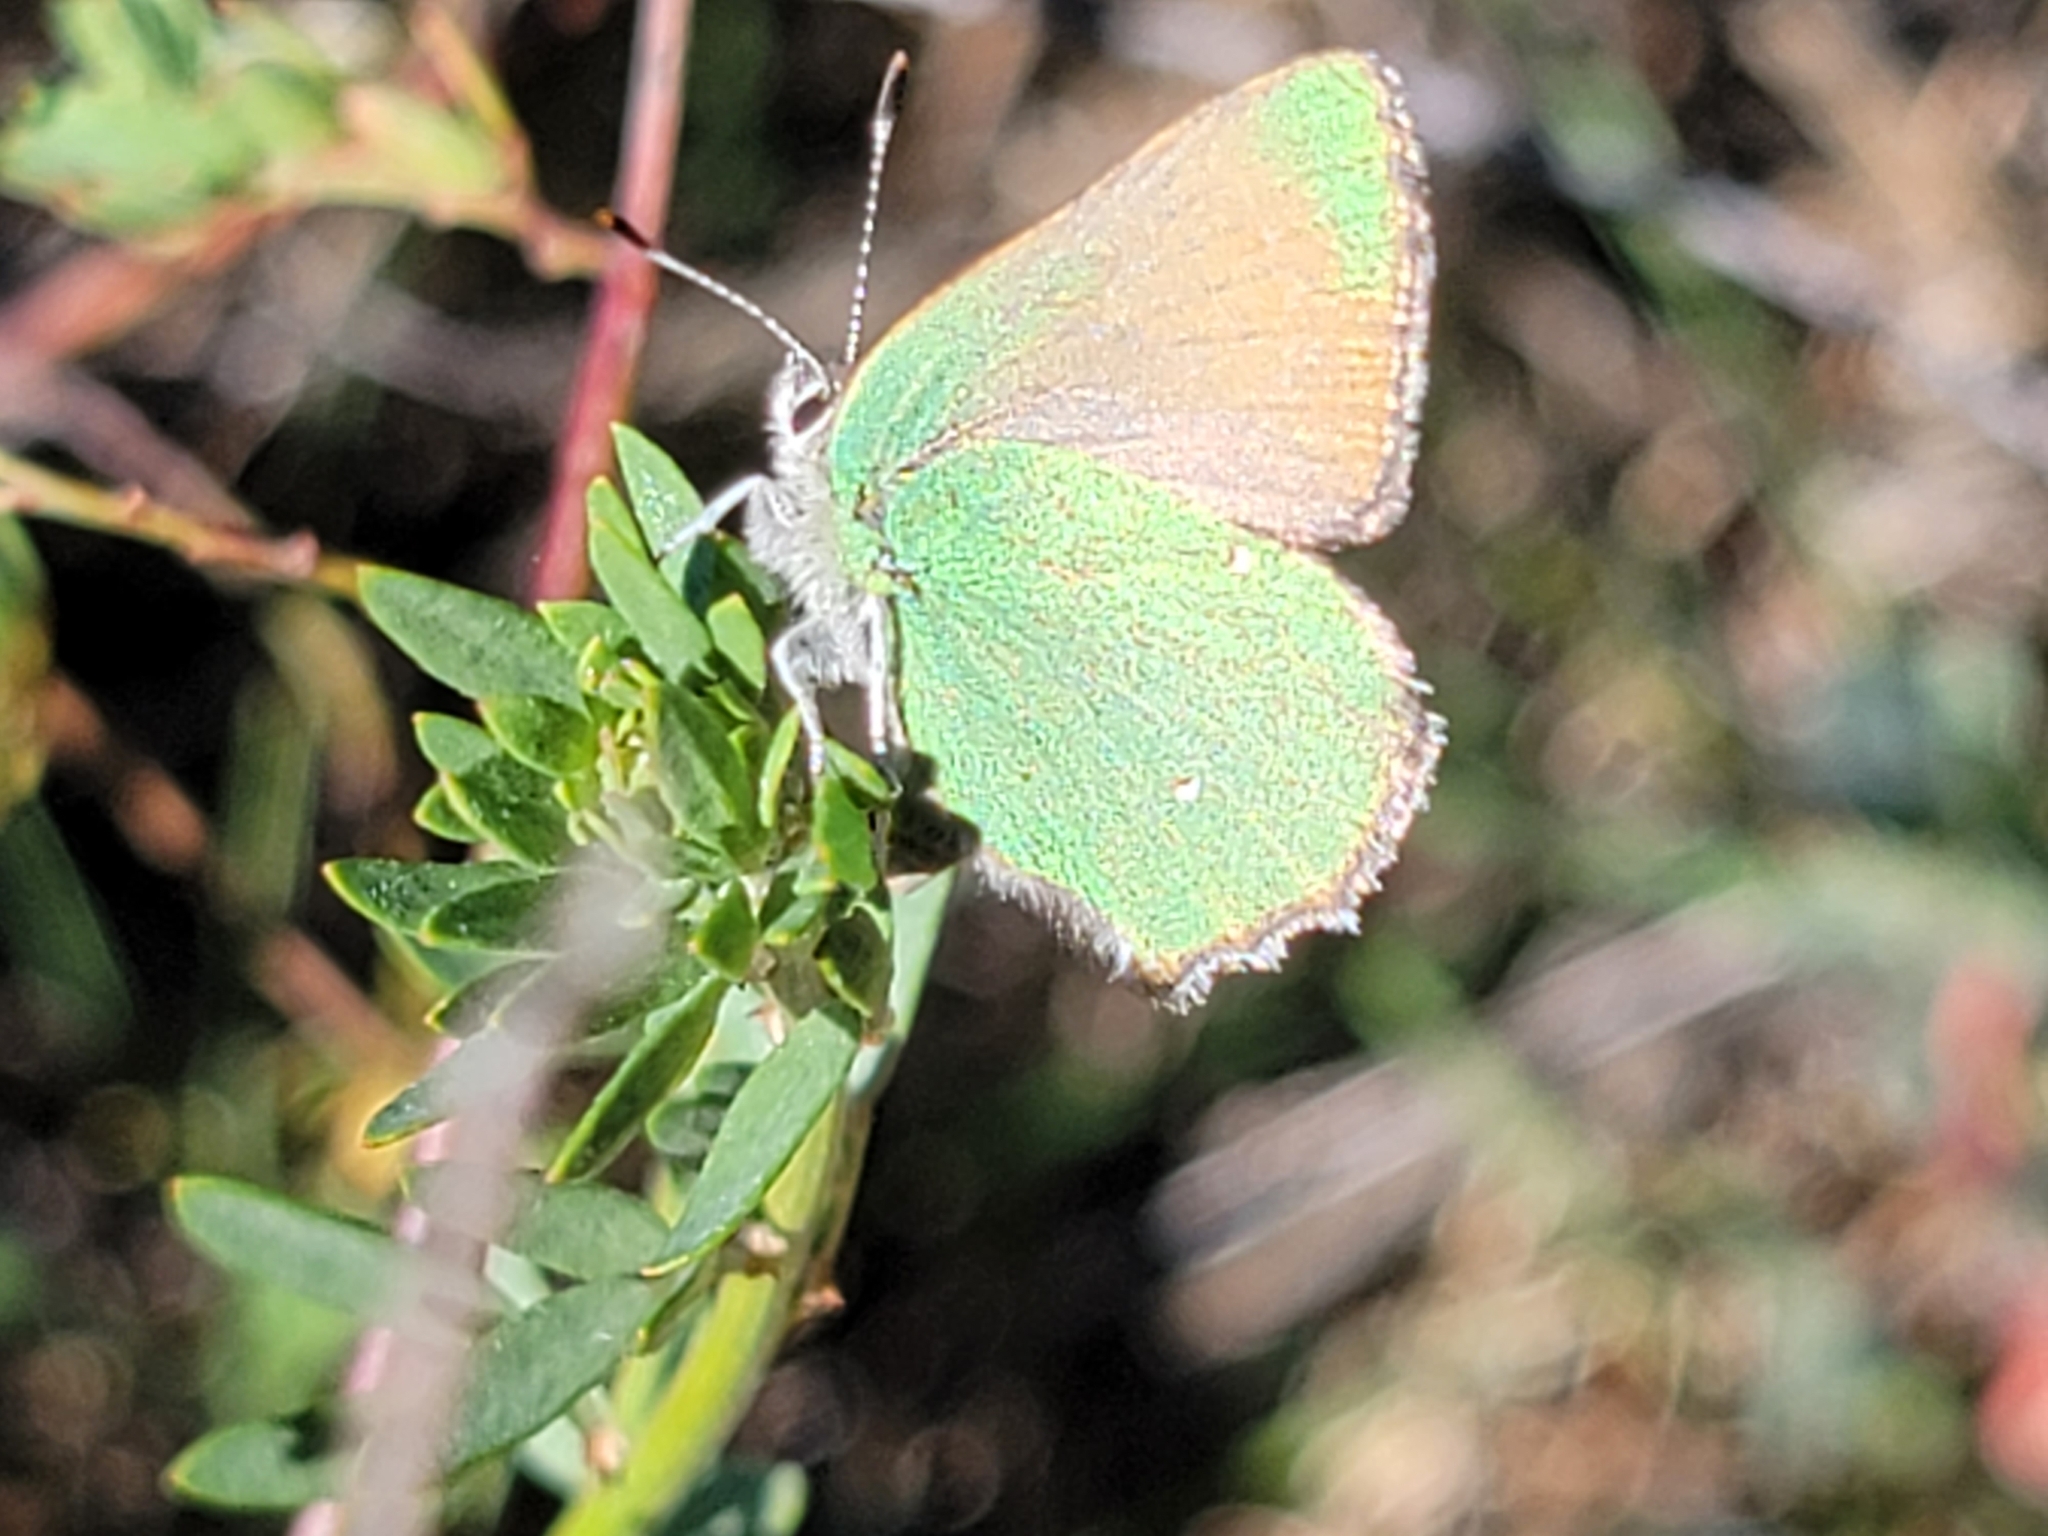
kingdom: Animalia
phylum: Arthropoda
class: Insecta
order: Lepidoptera
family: Lycaenidae
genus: Callophrys
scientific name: Callophrys dumetorum
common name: Bramble hairstreak
